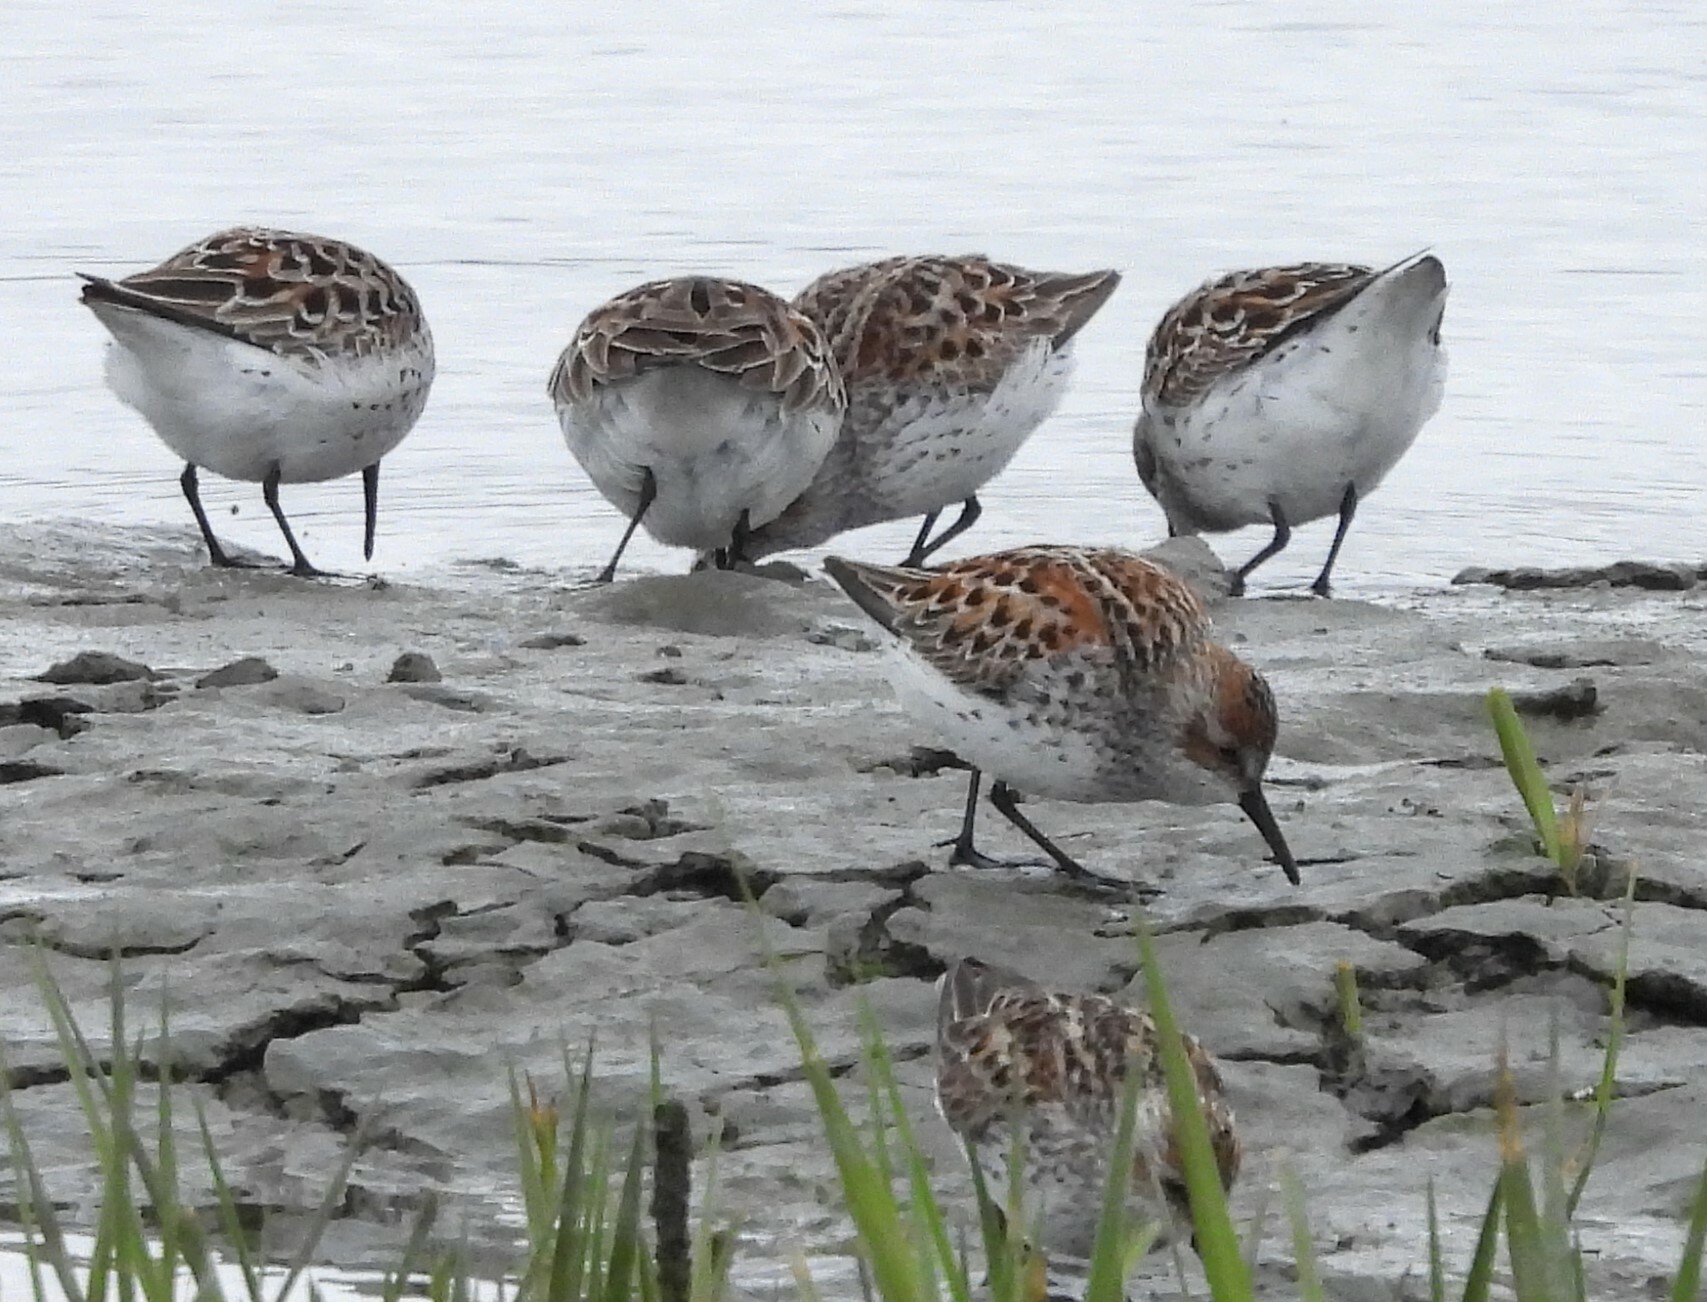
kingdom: Animalia
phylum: Chordata
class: Aves
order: Charadriiformes
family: Scolopacidae
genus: Calidris
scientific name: Calidris mauri
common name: Western sandpiper
